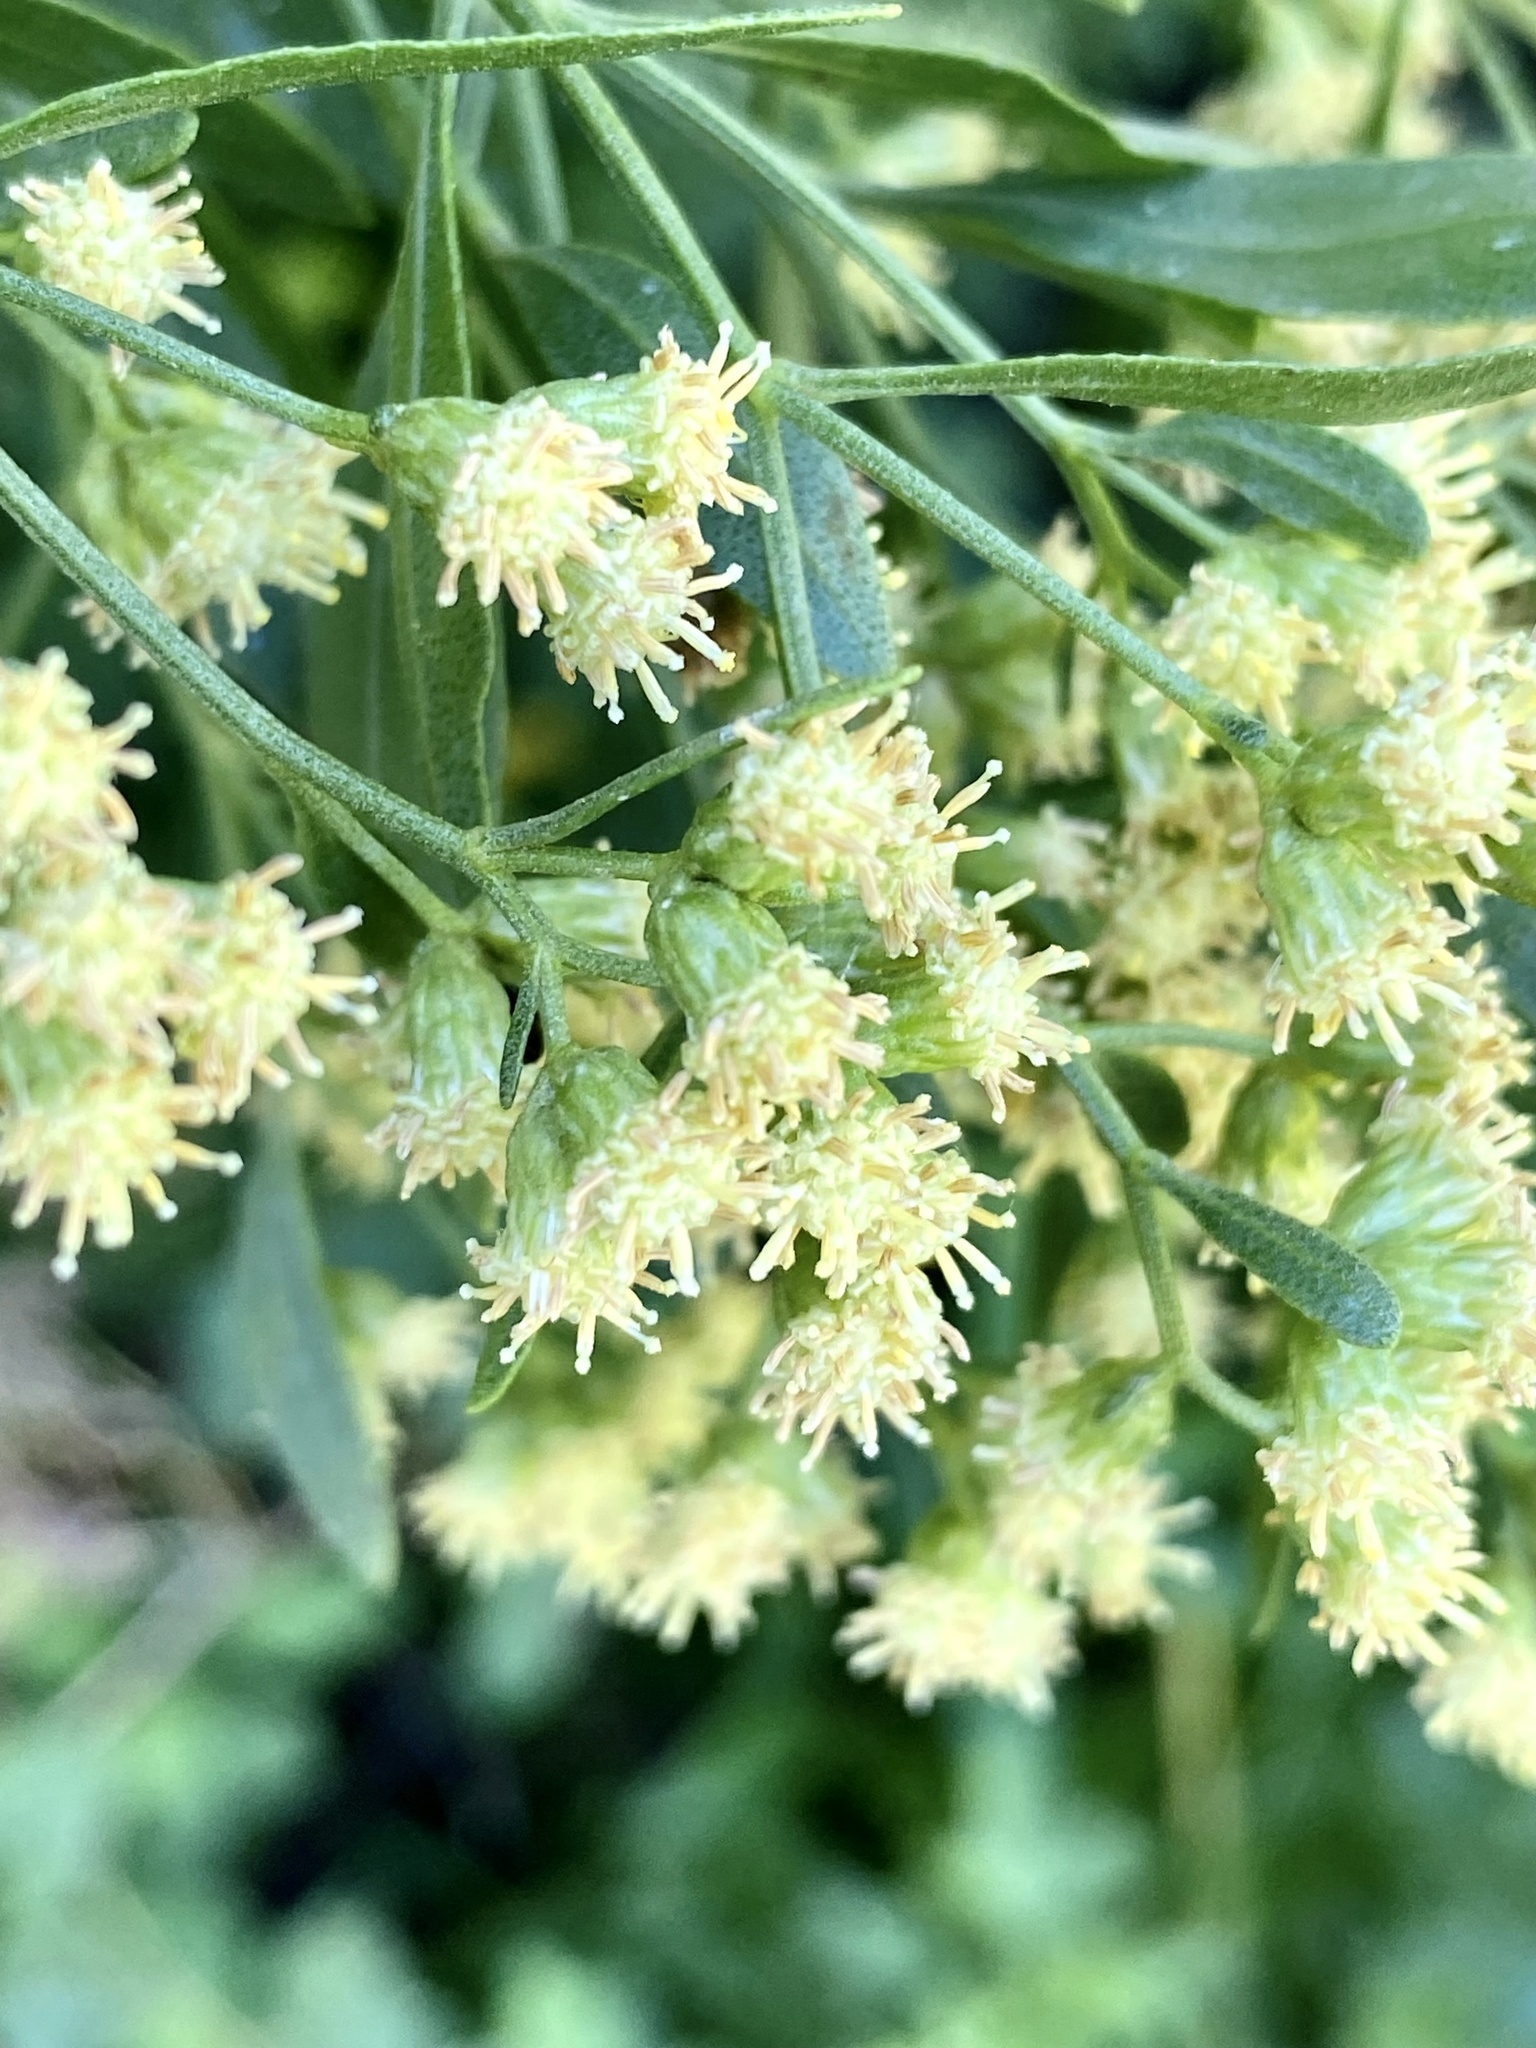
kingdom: Plantae
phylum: Tracheophyta
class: Magnoliopsida
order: Asterales
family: Asteraceae
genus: Baccharis
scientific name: Baccharis halimifolia
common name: Eastern baccharis
